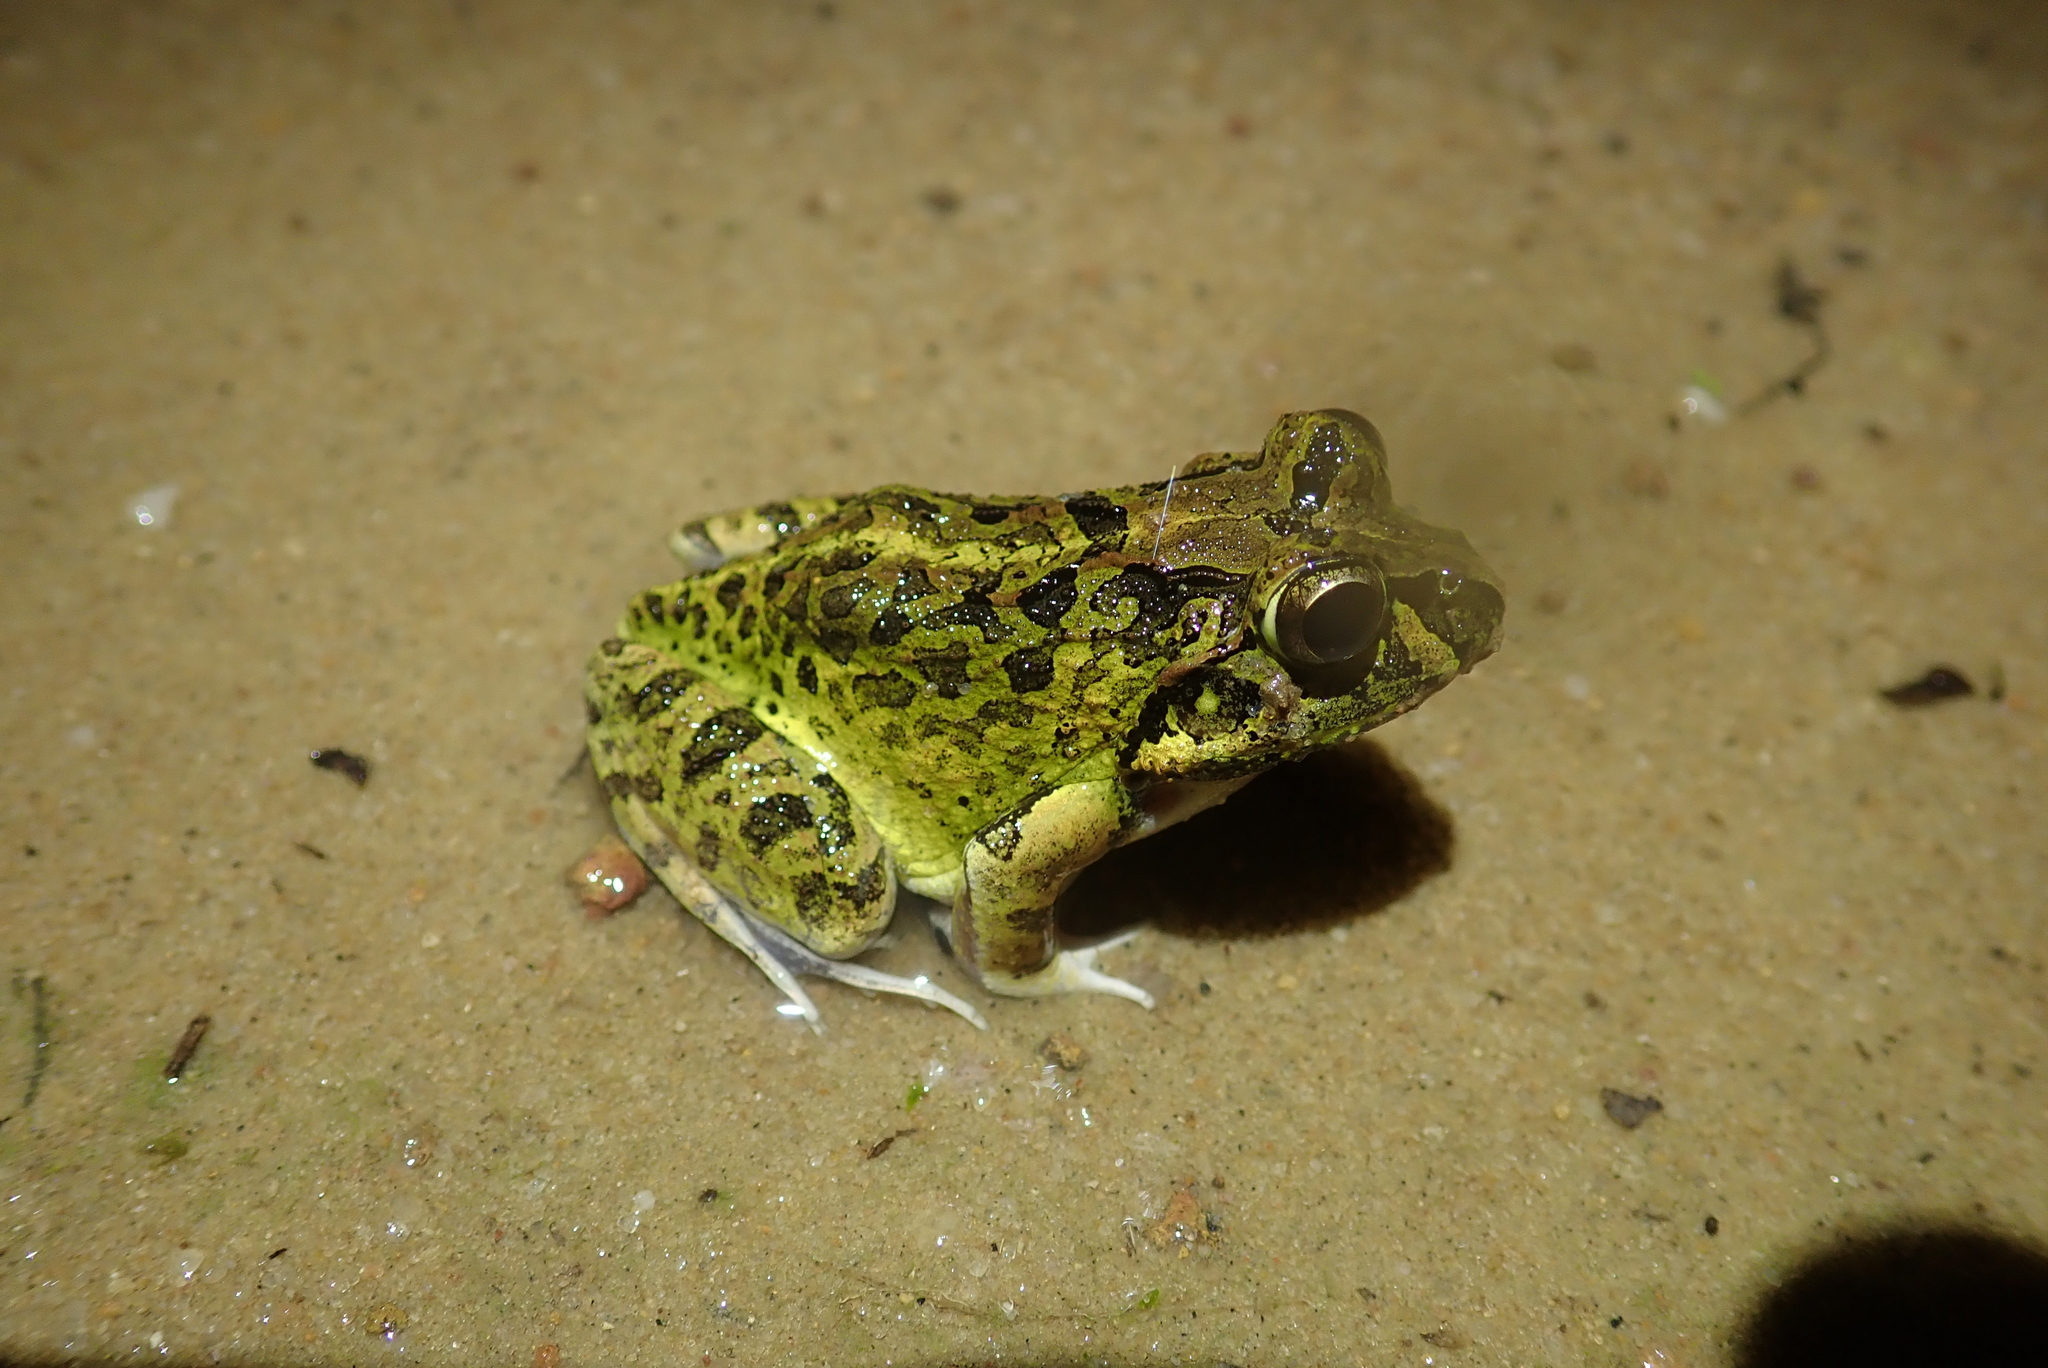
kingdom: Animalia
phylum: Chordata
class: Amphibia
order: Anura
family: Mantellidae
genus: Laliostoma
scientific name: Laliostoma labrosum
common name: Madagascar bullfrog
